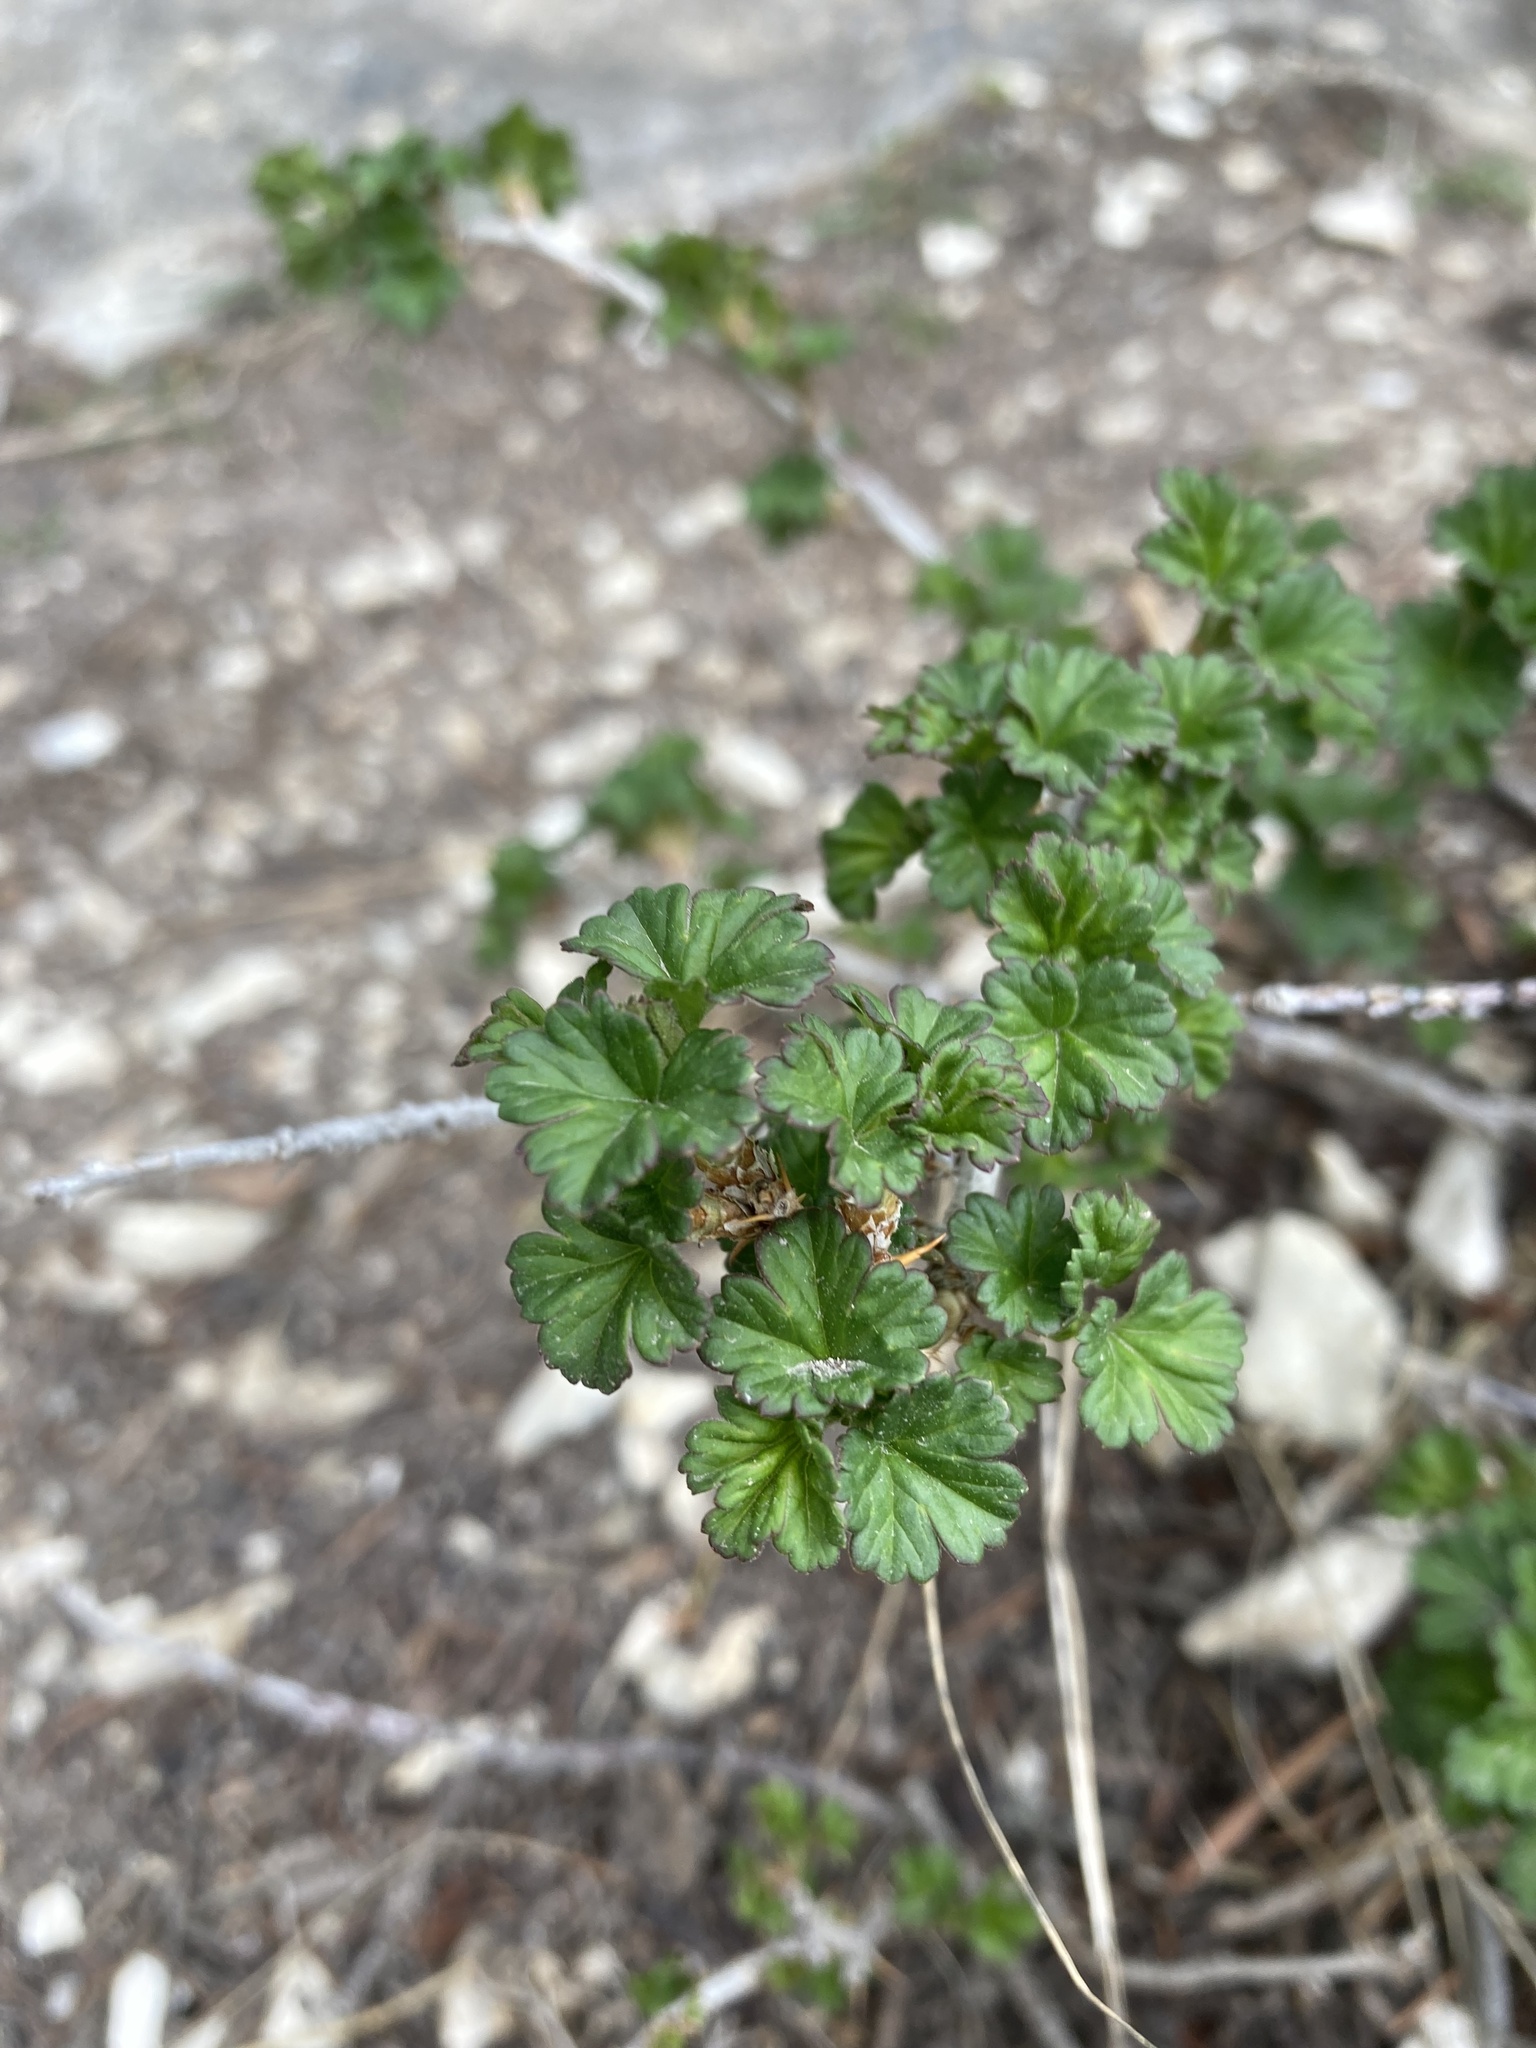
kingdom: Plantae
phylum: Tracheophyta
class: Magnoliopsida
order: Saxifragales
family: Grossulariaceae
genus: Ribes
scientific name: Ribes oxyacanthoides
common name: Northern gooseberry
